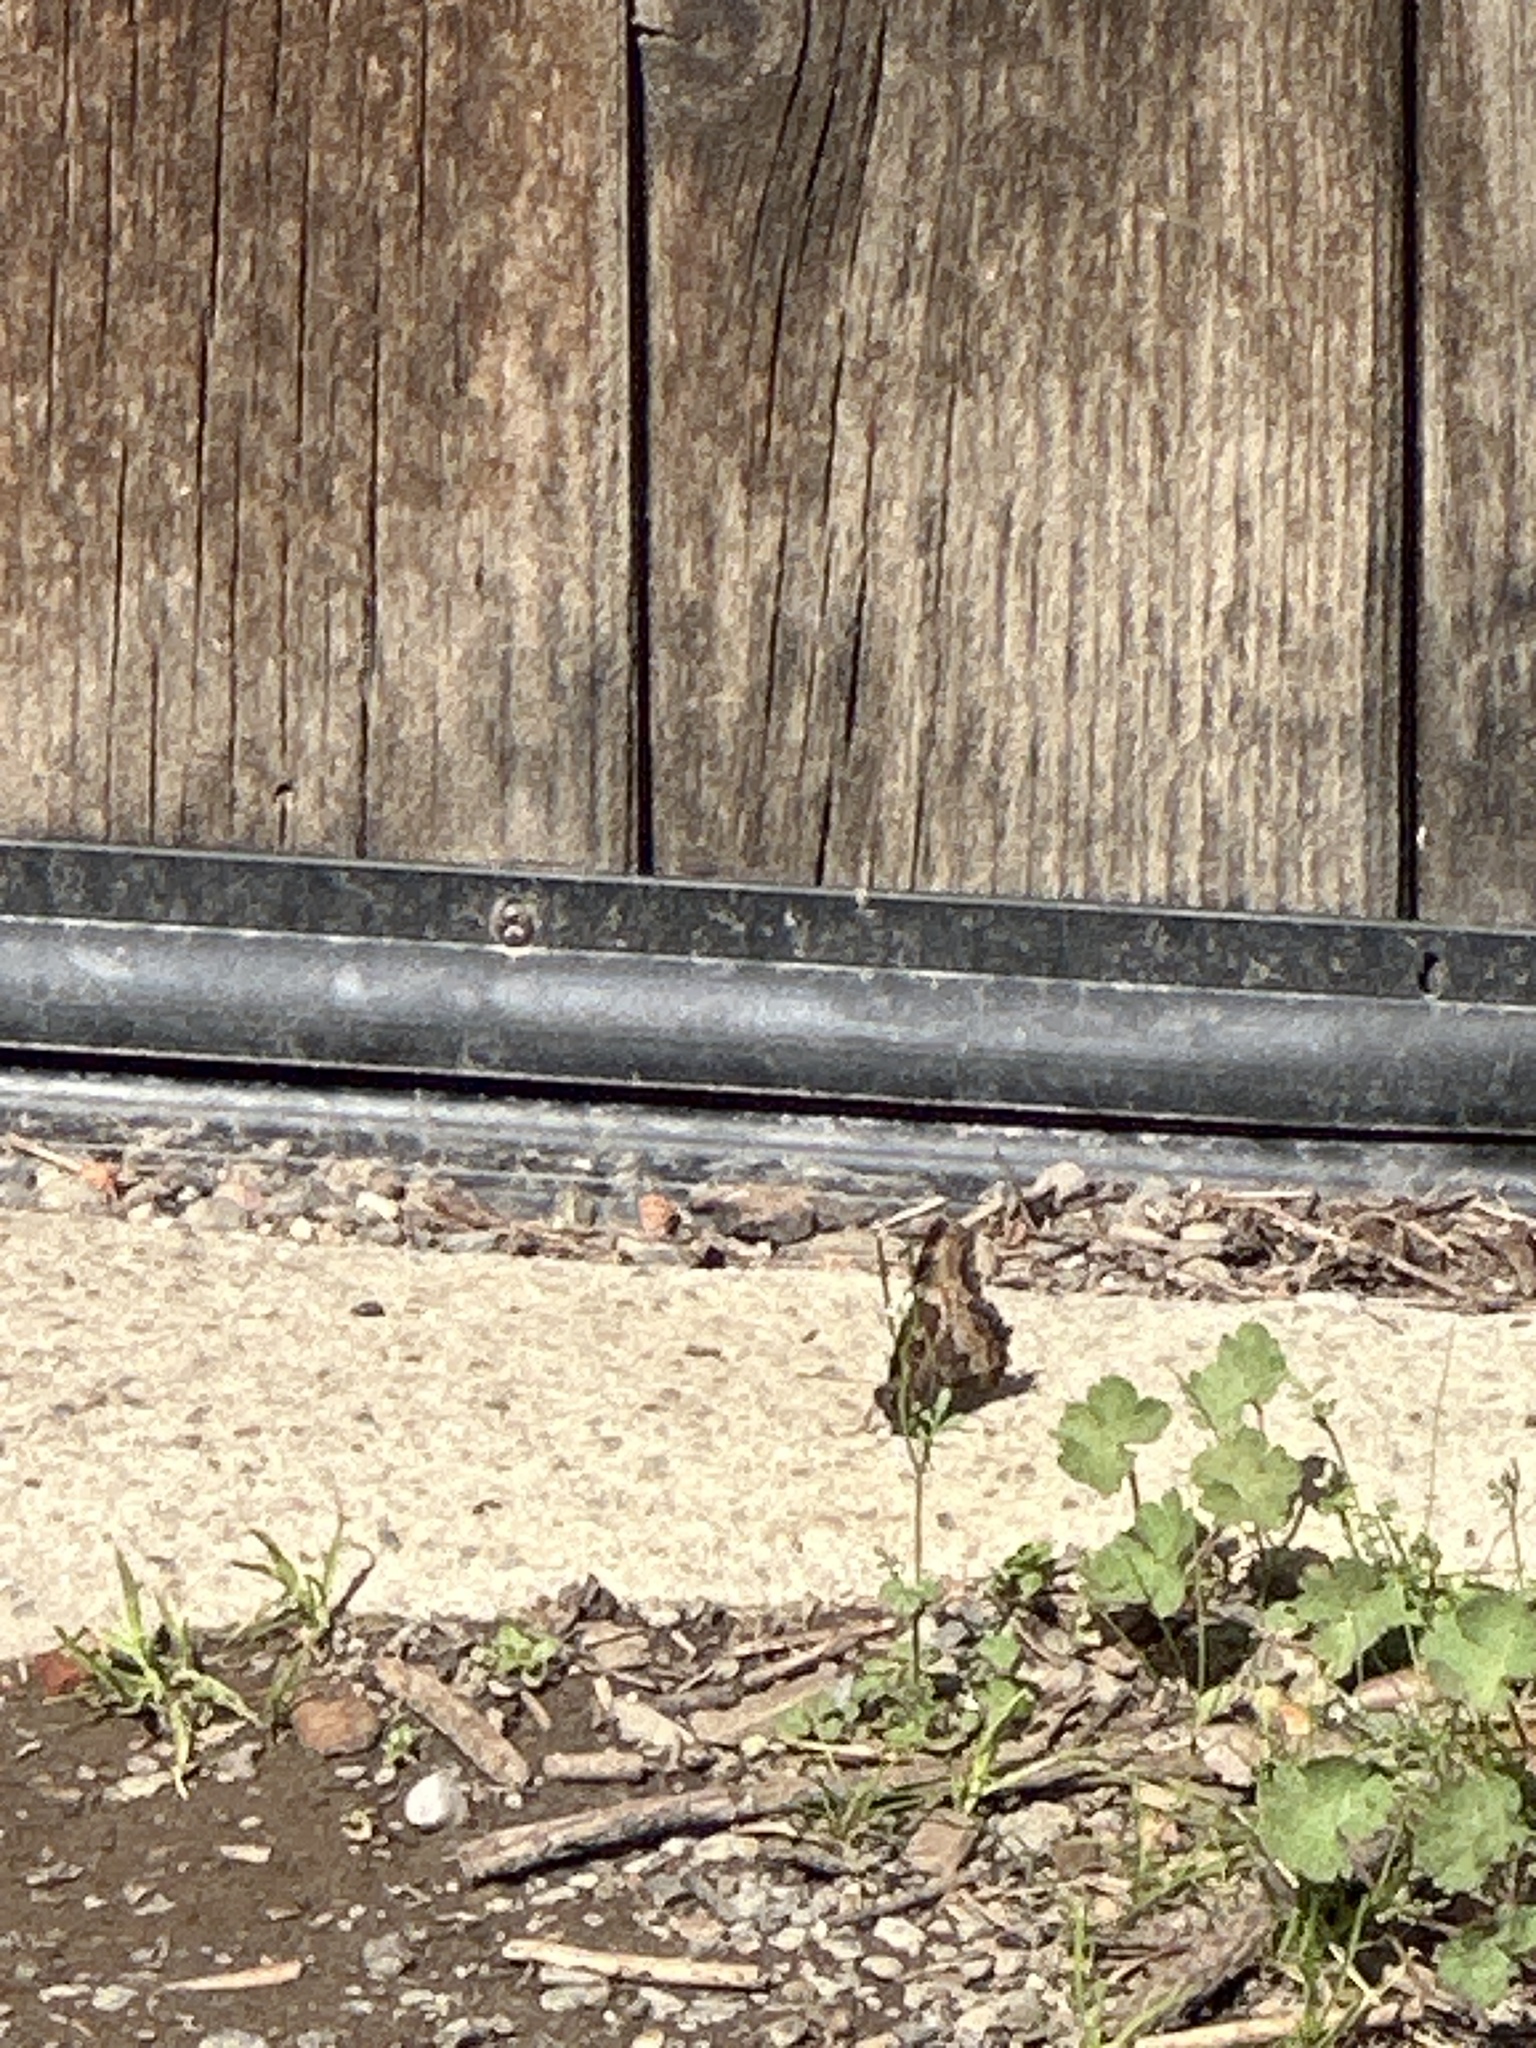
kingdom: Animalia
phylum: Arthropoda
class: Insecta
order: Lepidoptera
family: Nymphalidae
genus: Nymphalis
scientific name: Nymphalis californica
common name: California tortoiseshell
